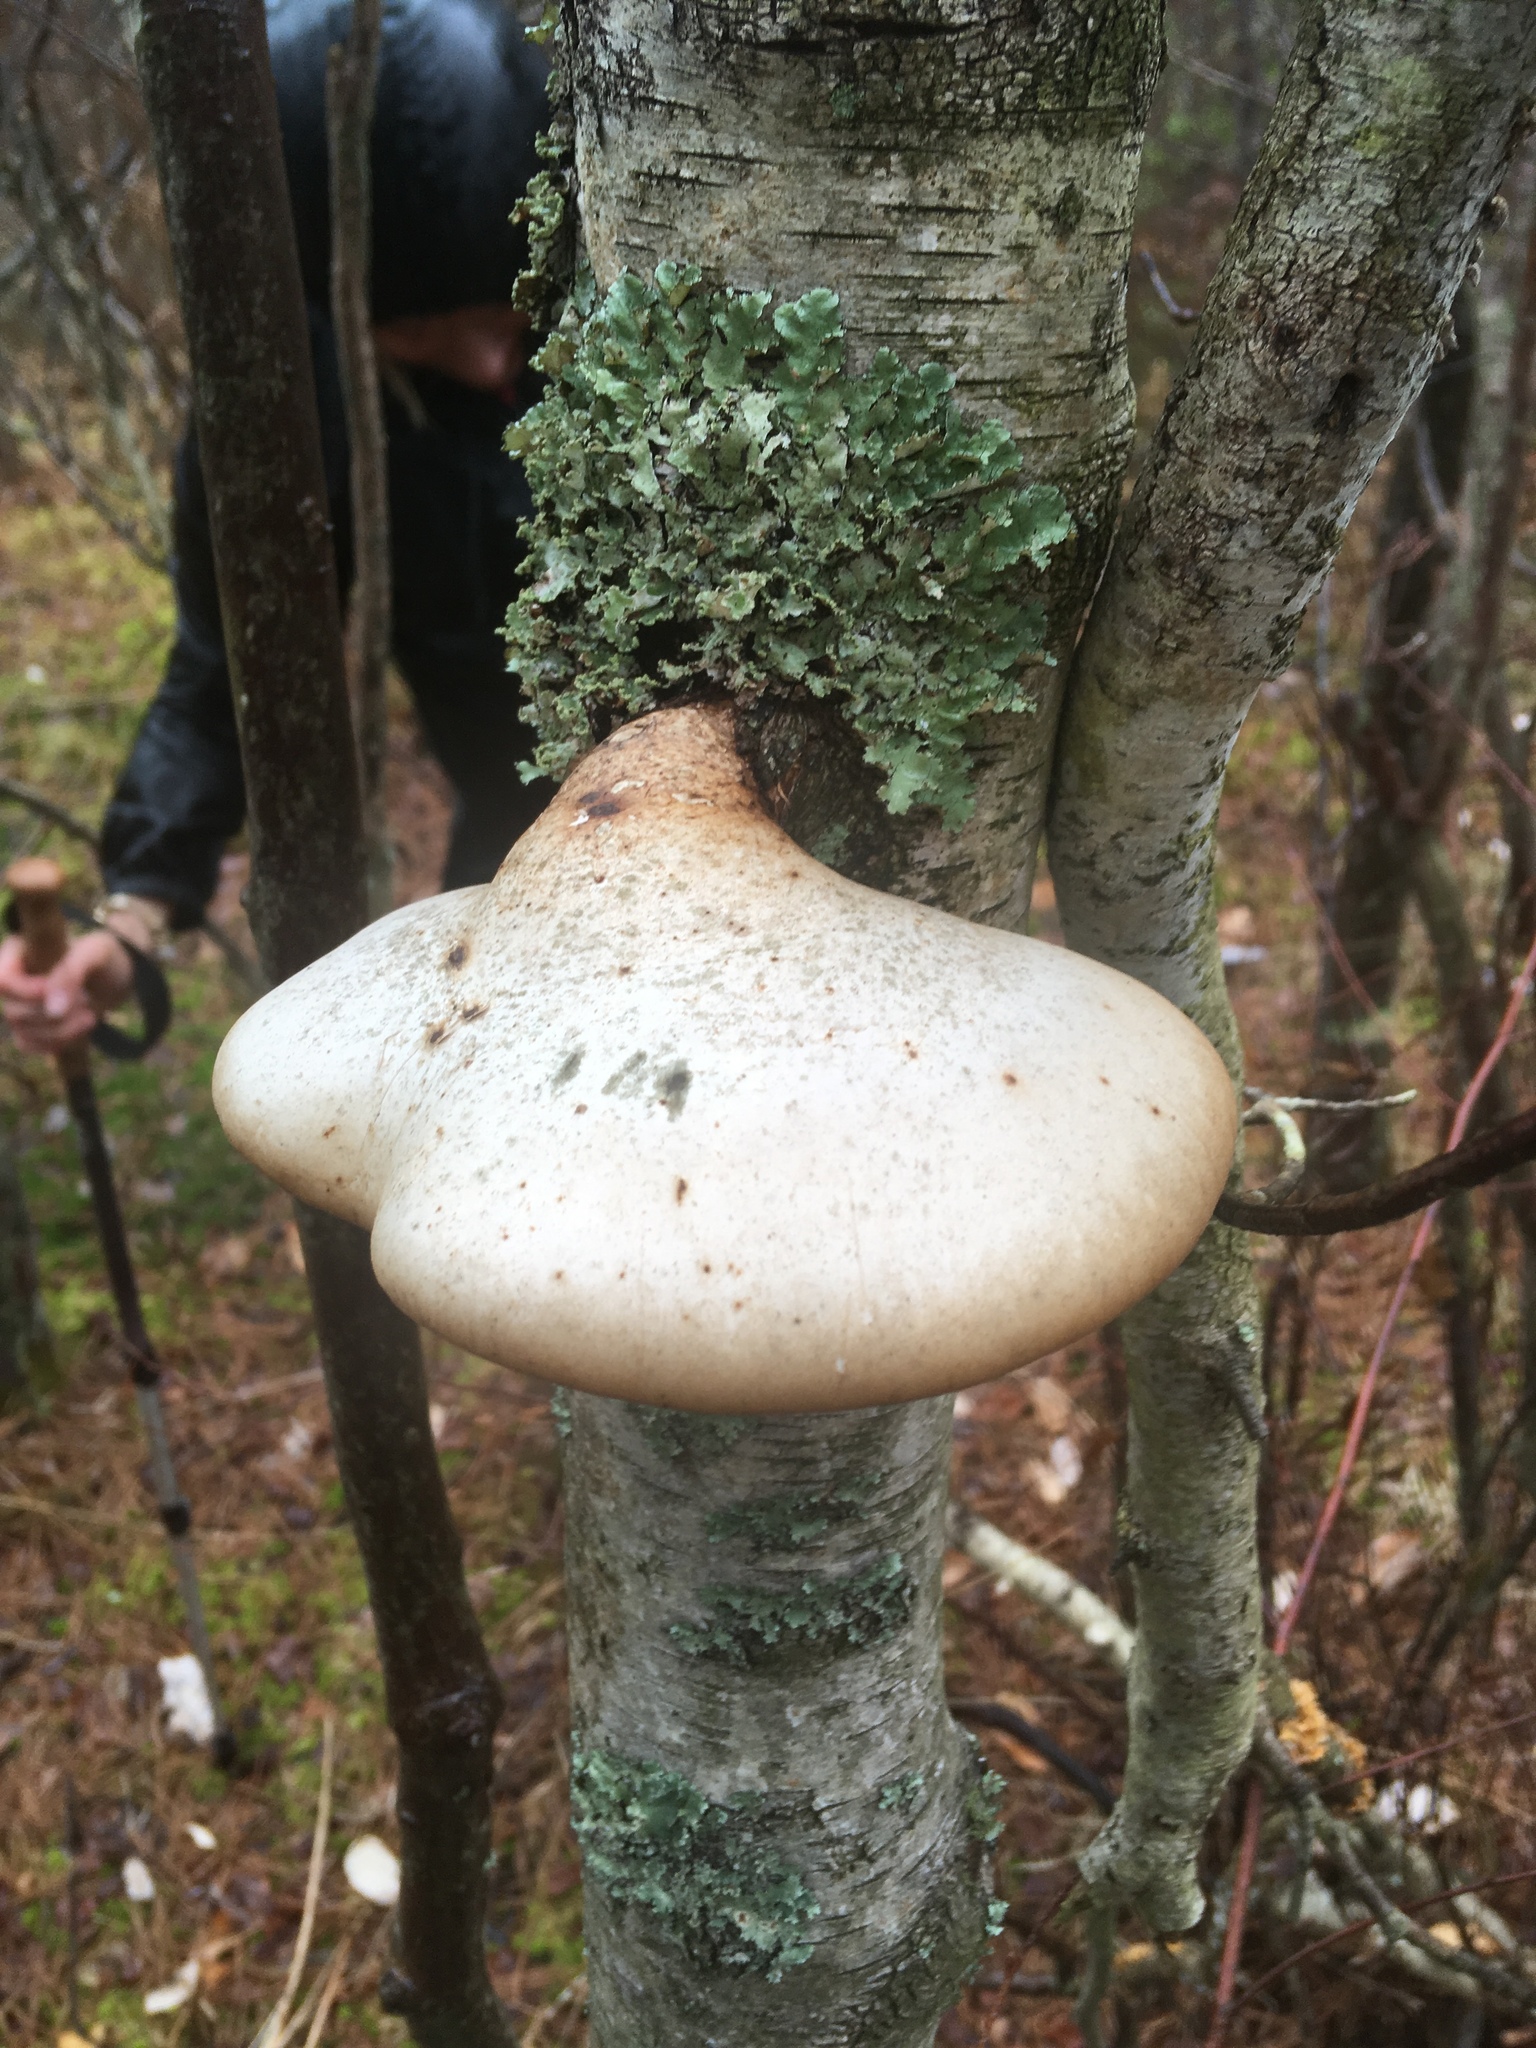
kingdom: Fungi
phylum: Basidiomycota
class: Agaricomycetes
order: Polyporales
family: Fomitopsidaceae
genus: Fomitopsis
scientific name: Fomitopsis betulina
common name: Birch polypore
